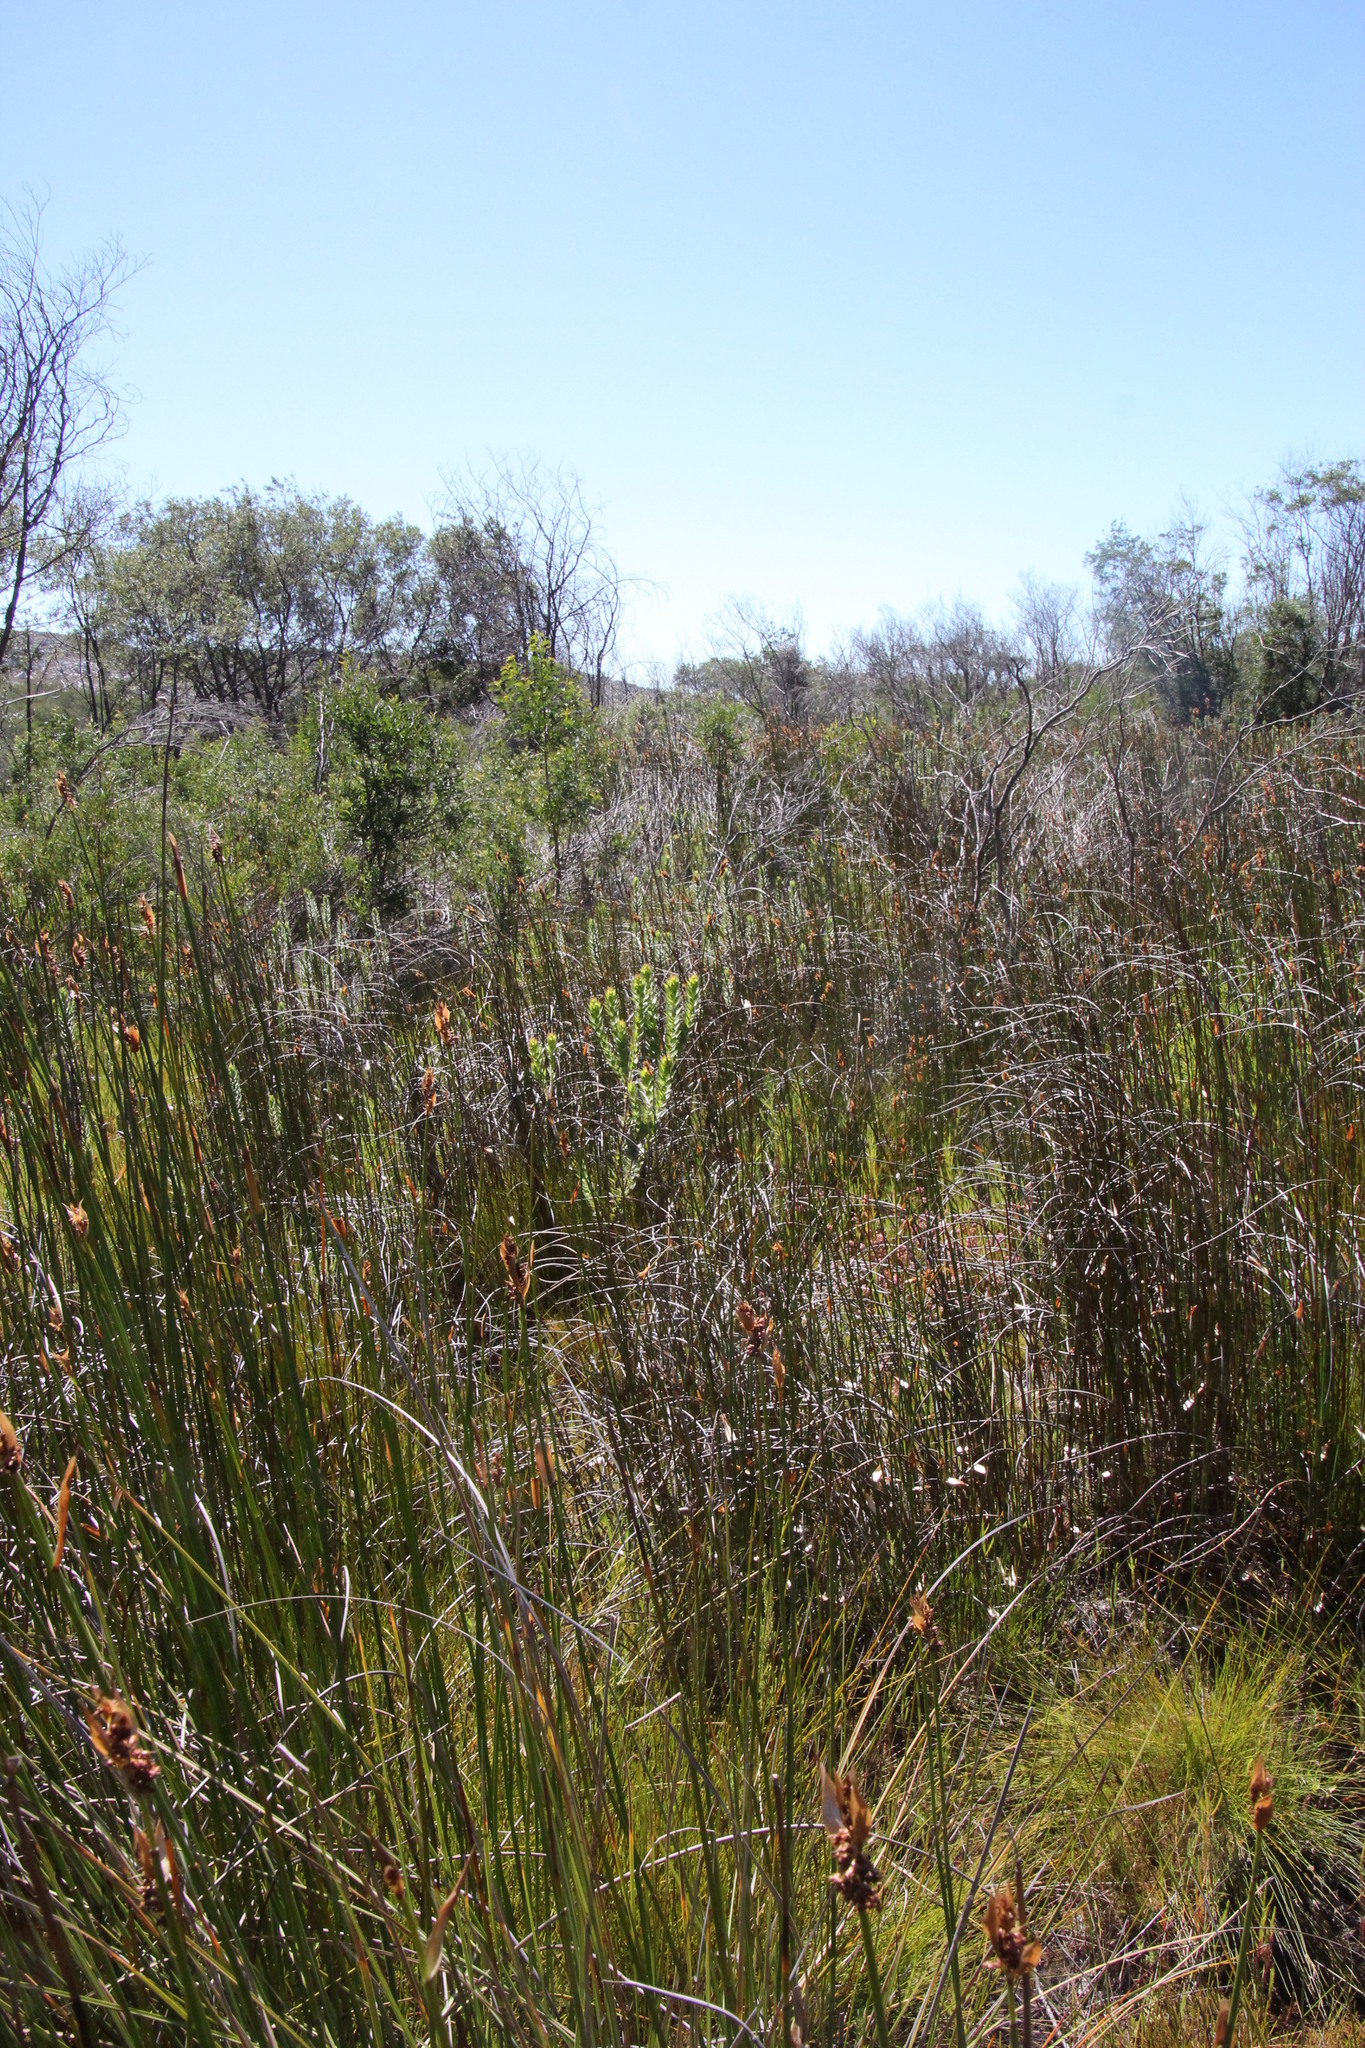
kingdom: Plantae
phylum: Tracheophyta
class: Magnoliopsida
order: Proteales
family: Proteaceae
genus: Mimetes
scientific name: Mimetes hirtus
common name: Marsh pagoda
